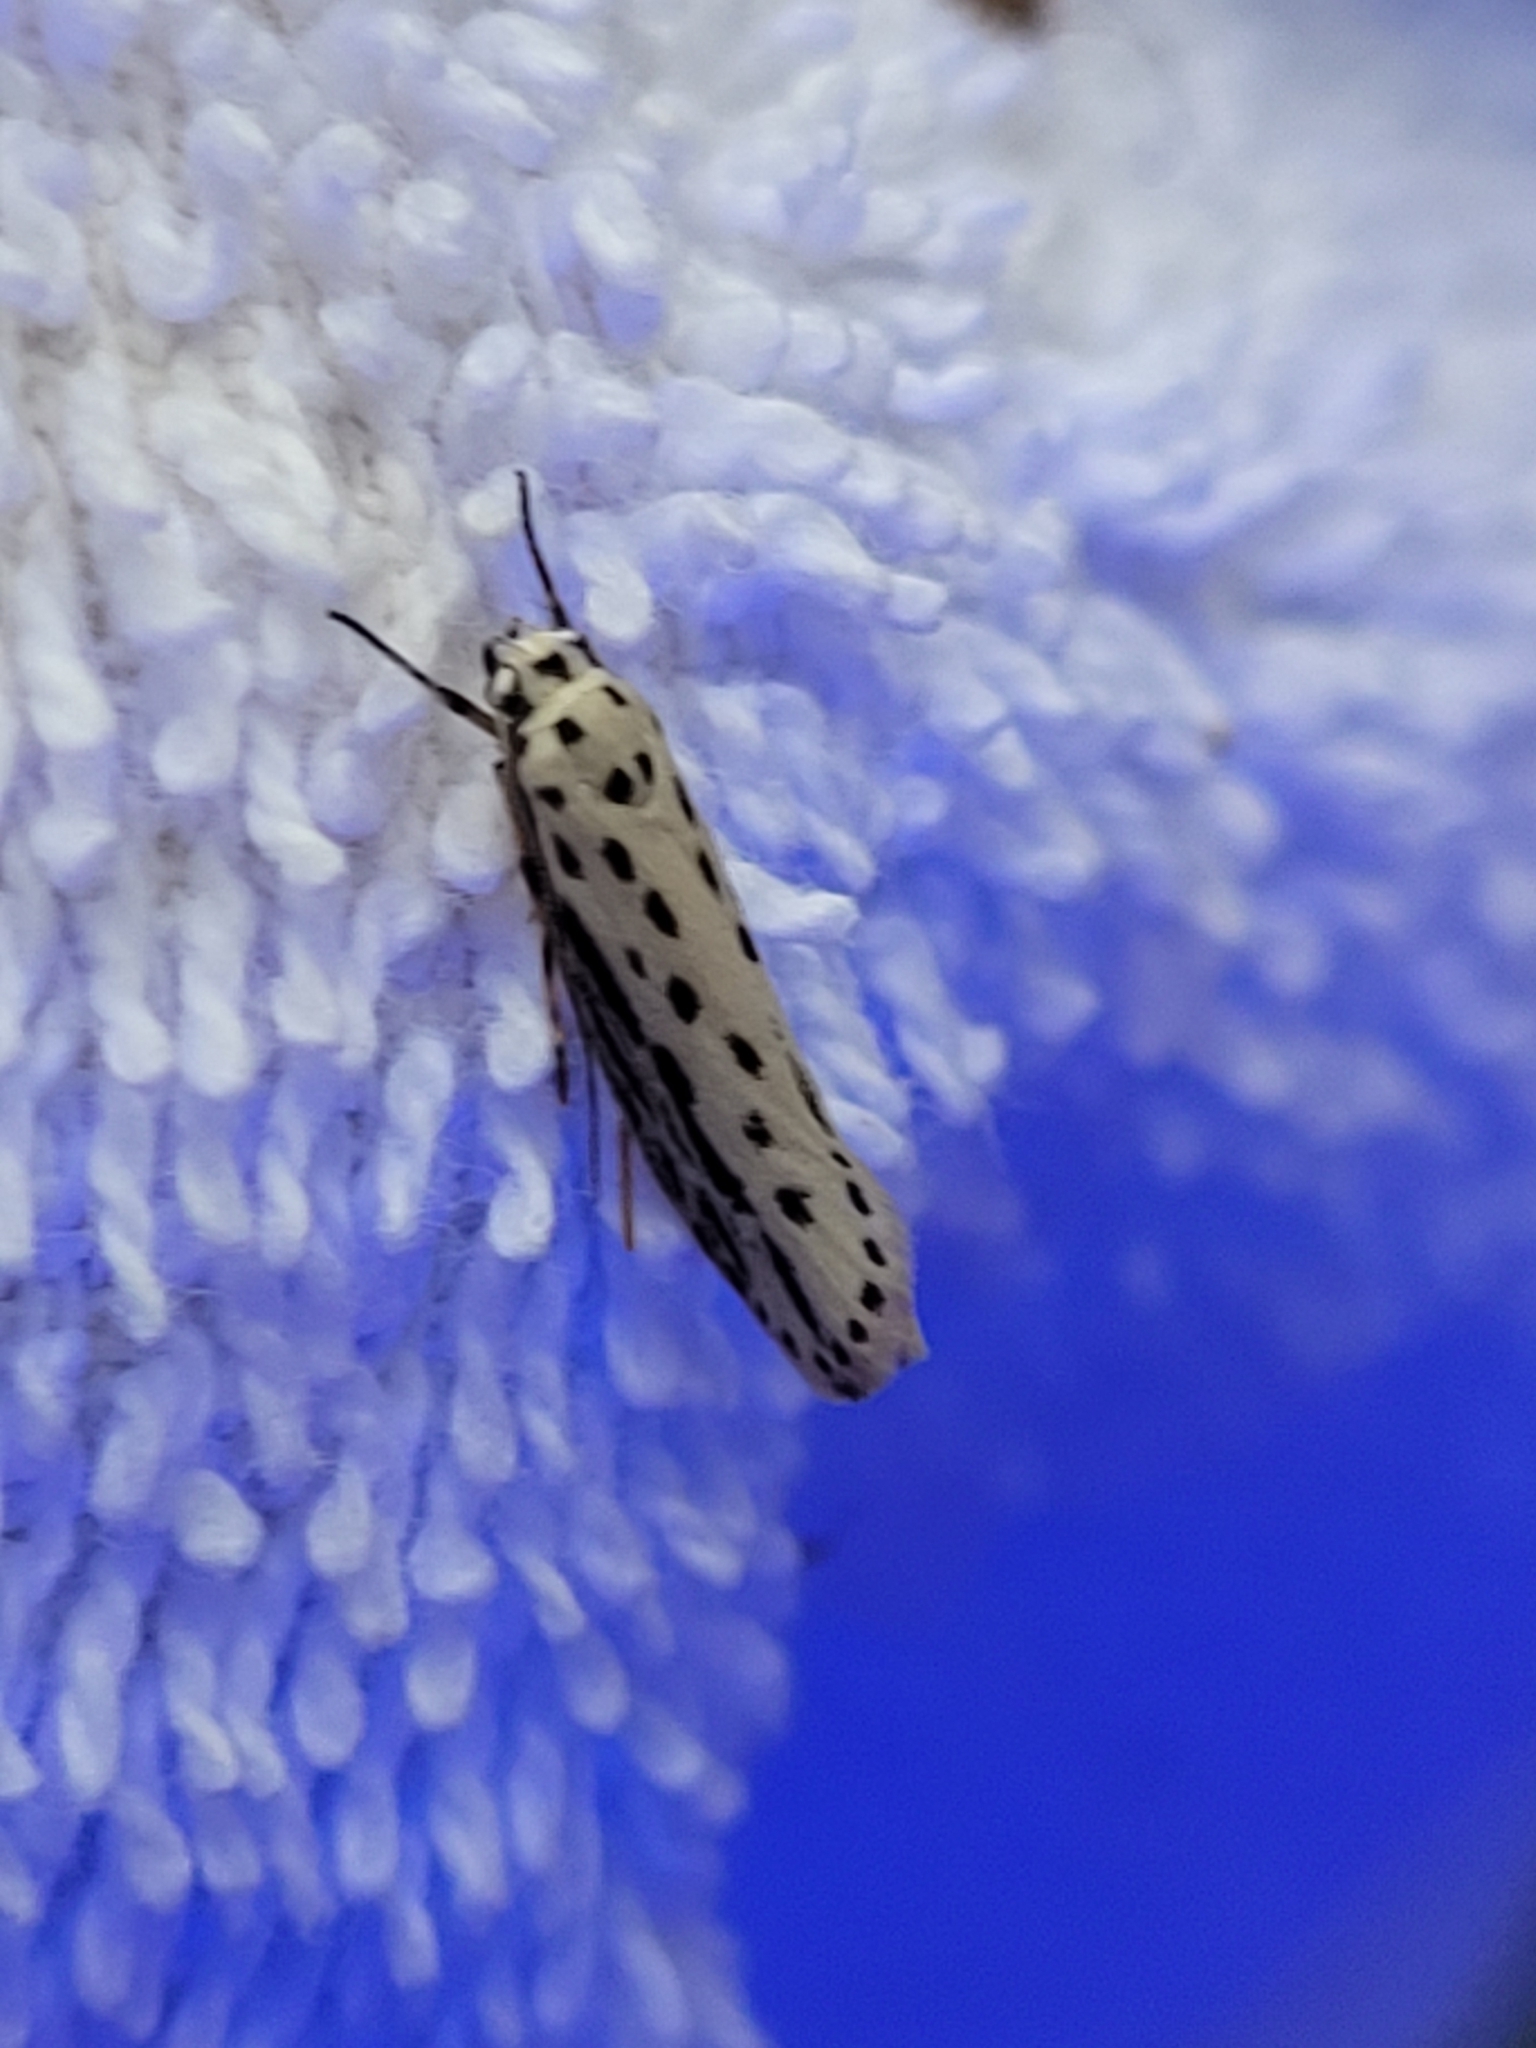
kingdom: Animalia
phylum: Arthropoda
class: Insecta
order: Lepidoptera
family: Ethmiidae
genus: Ethmia
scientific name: Ethmia zelleriella
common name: Zeller's ethmia
